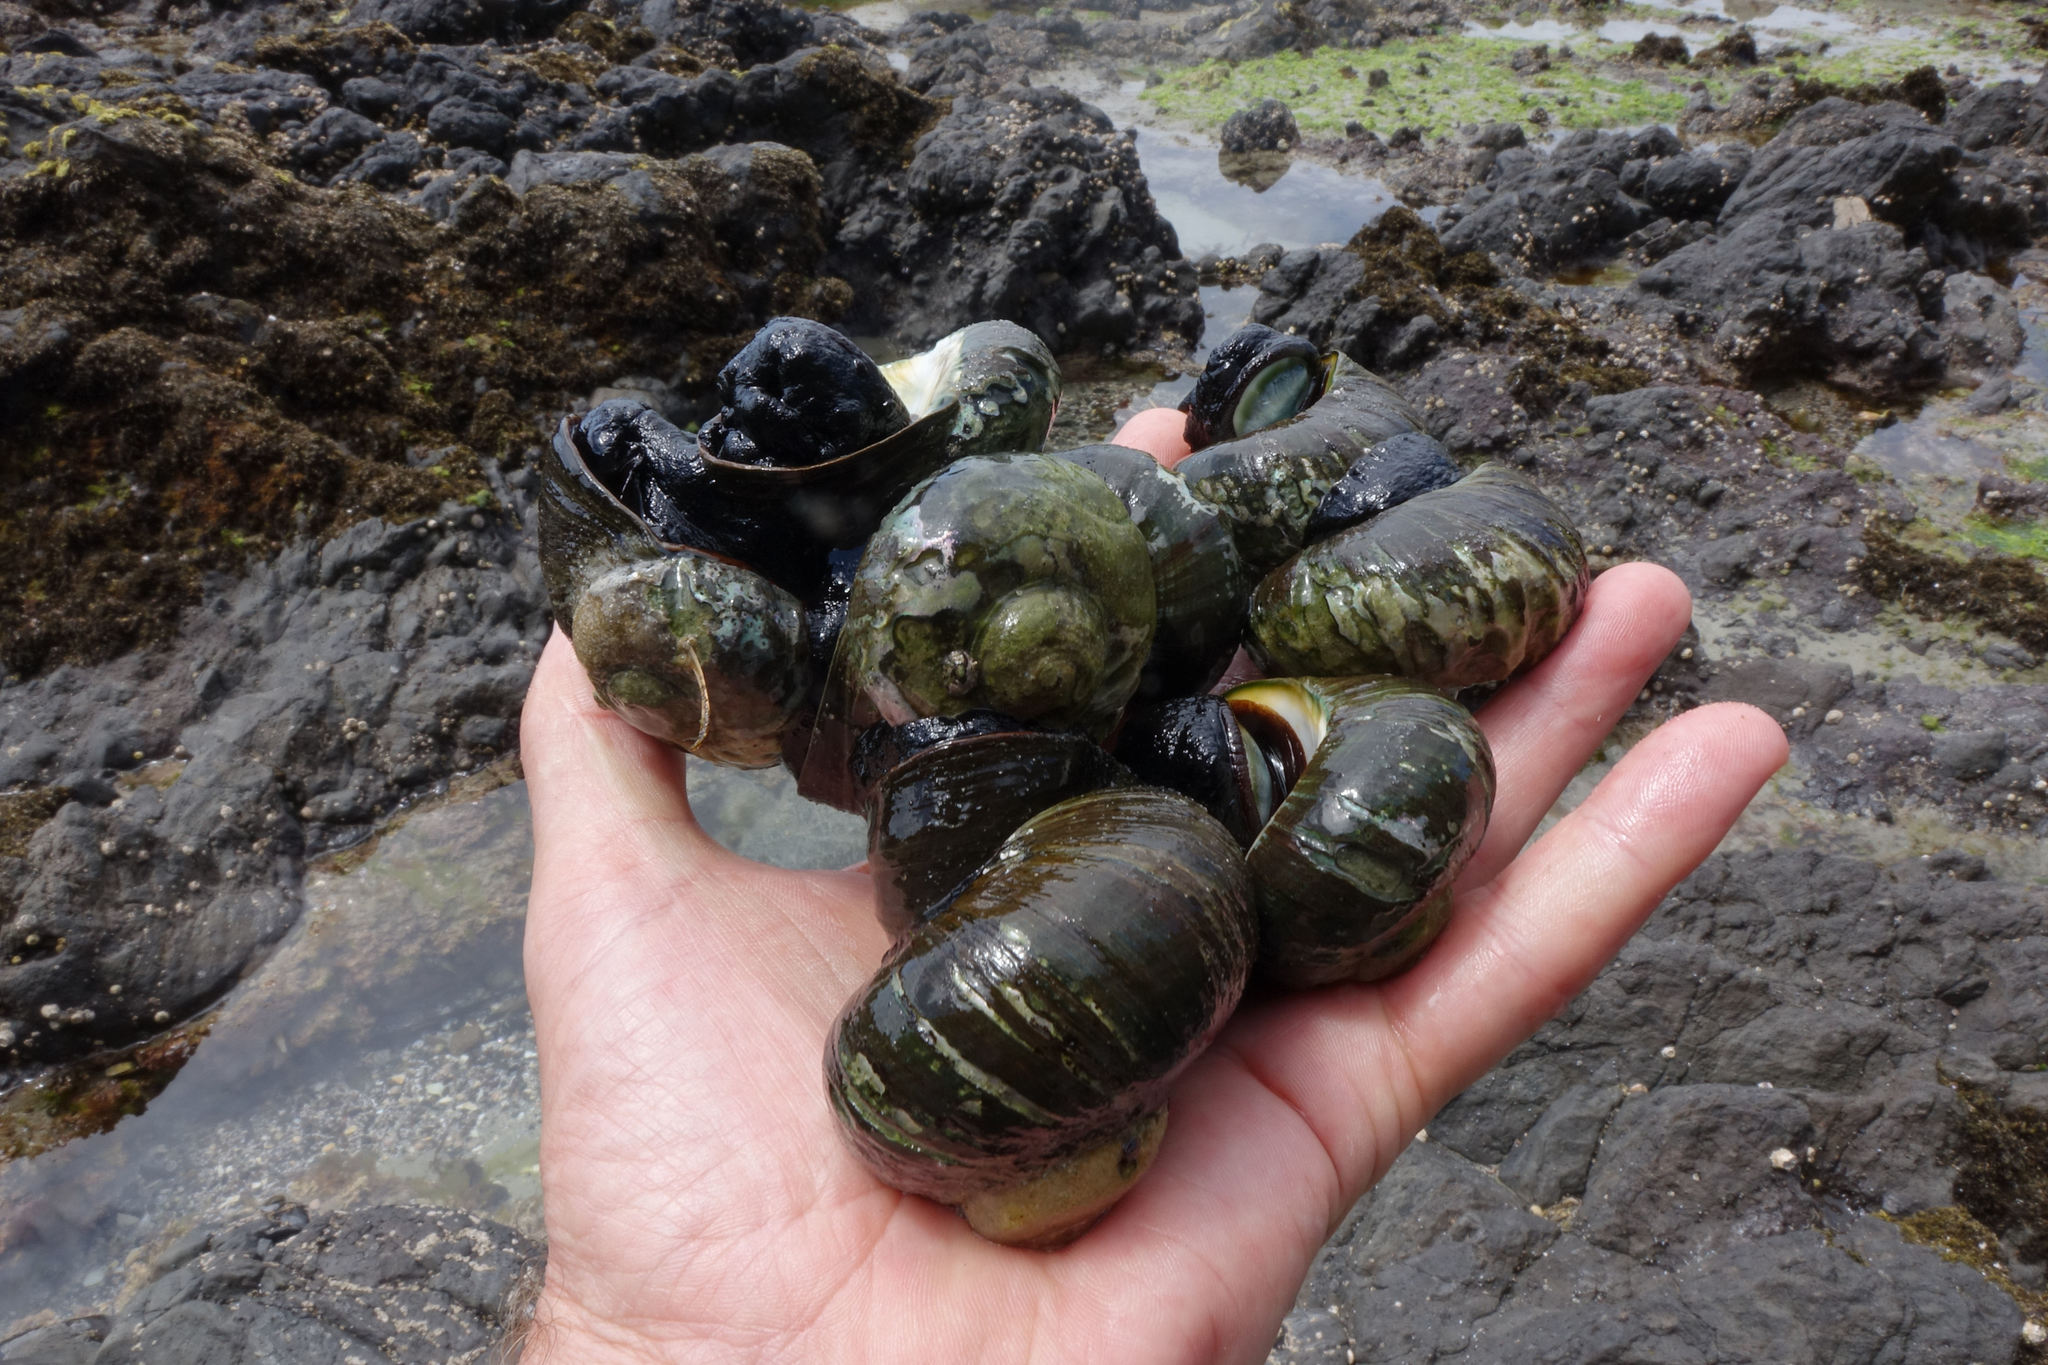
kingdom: Animalia
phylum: Mollusca
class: Gastropoda
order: Trochida
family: Turbinidae
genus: Lunella
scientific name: Lunella smaragda
